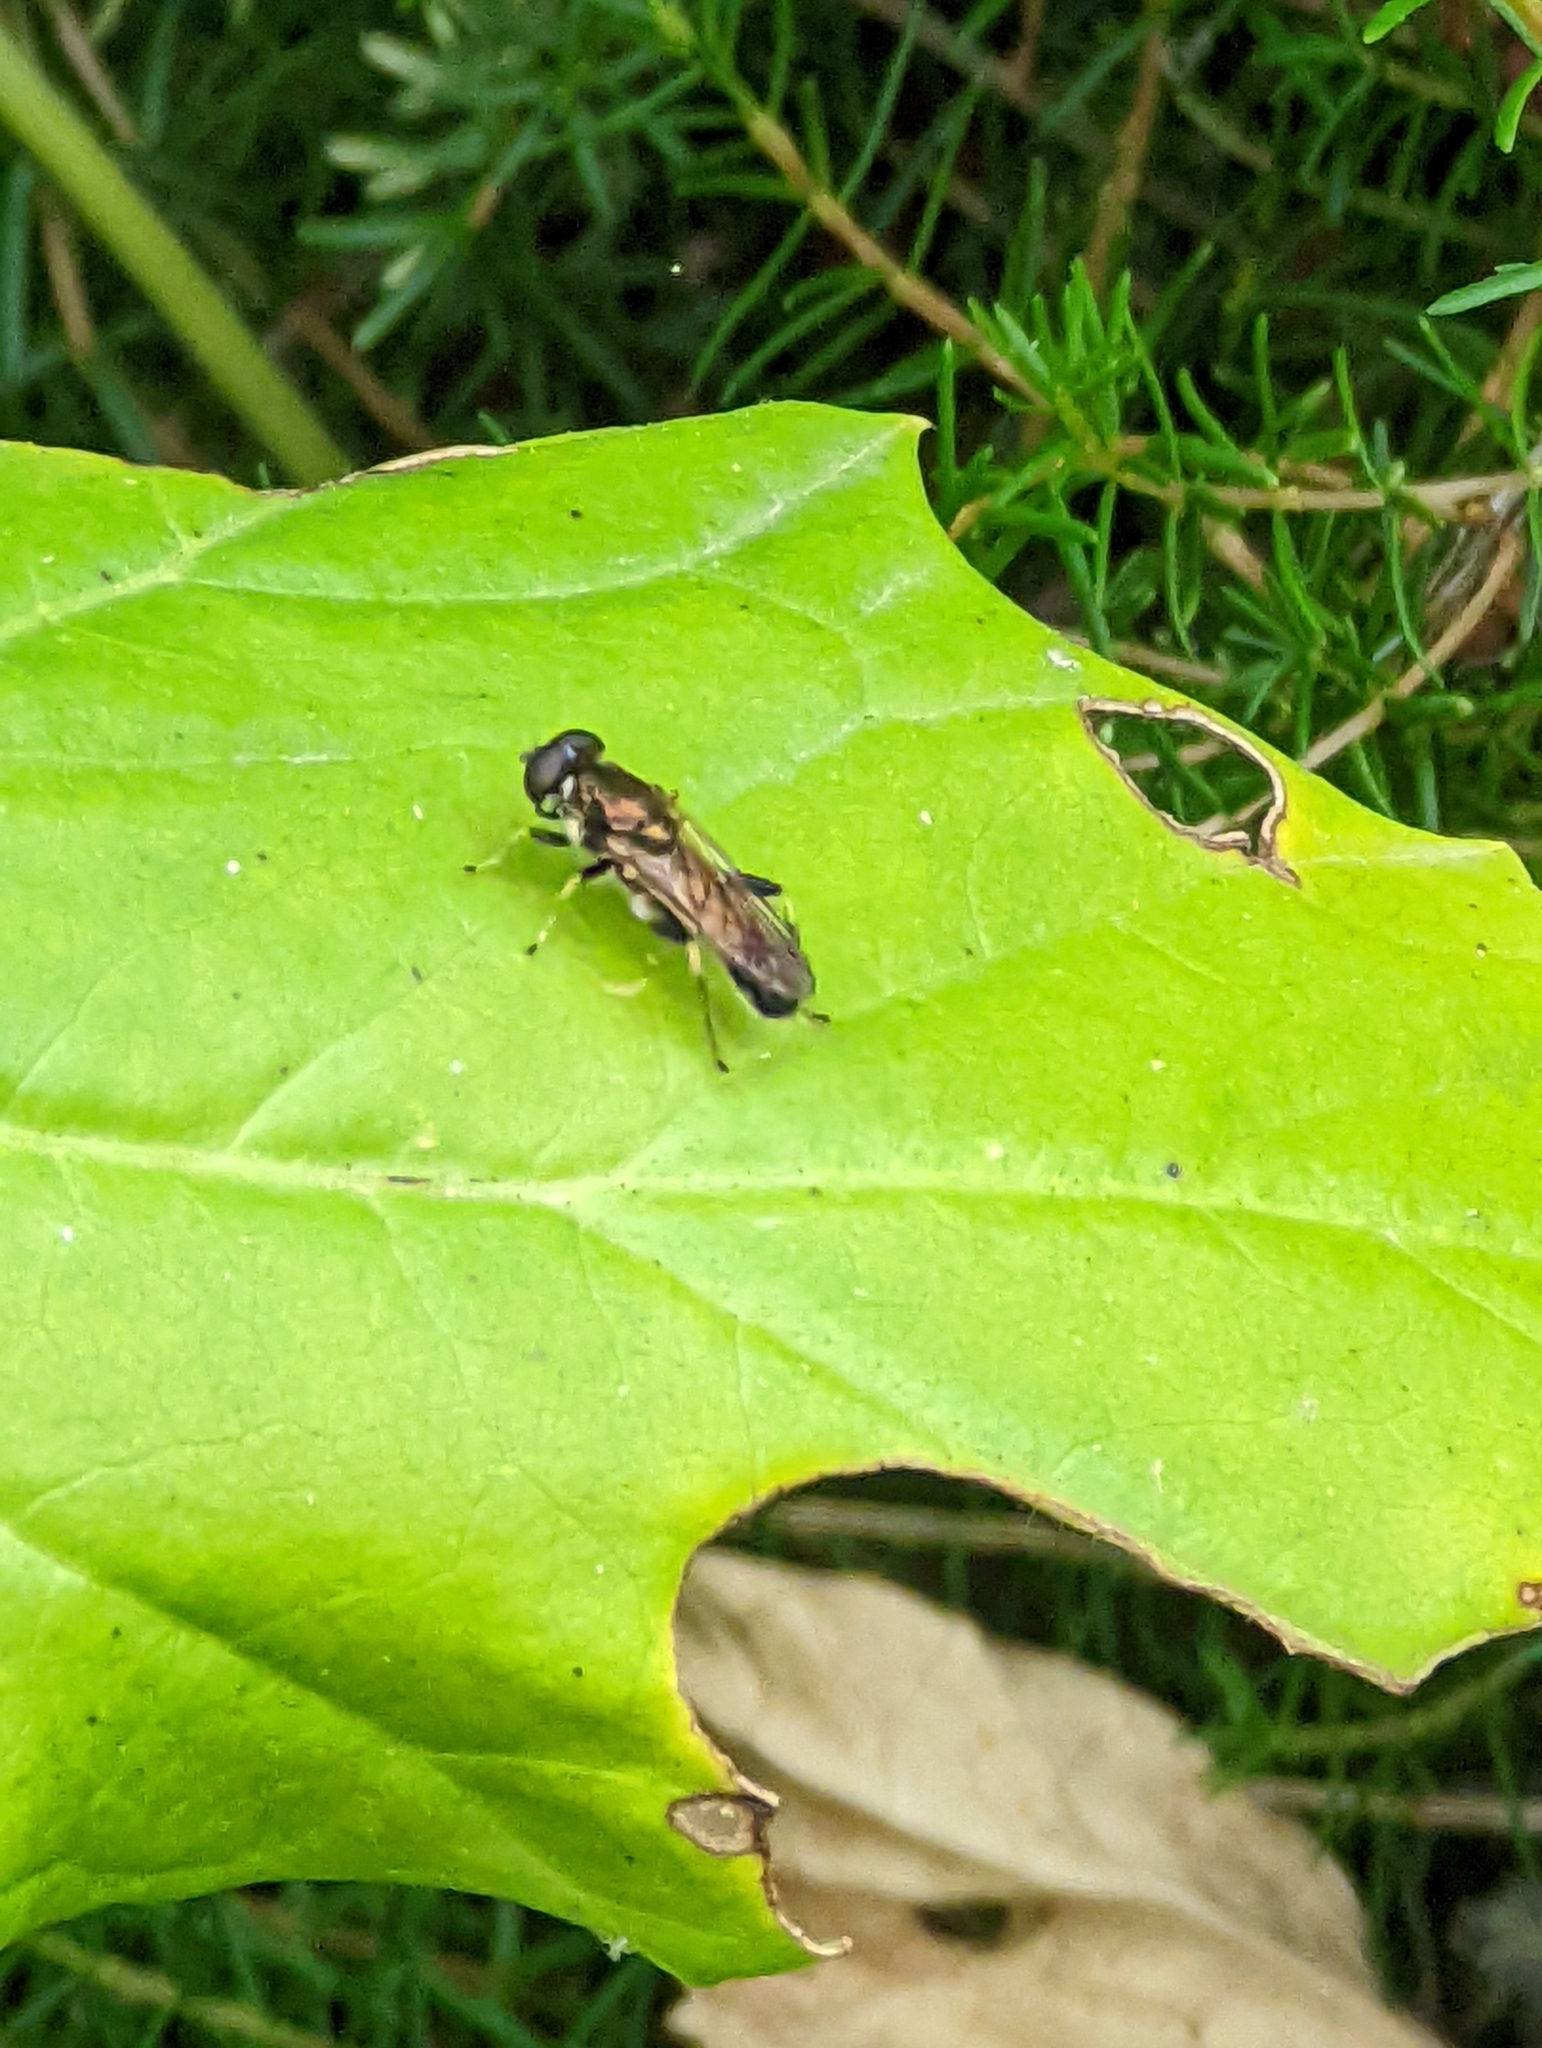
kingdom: Animalia
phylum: Arthropoda
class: Insecta
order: Diptera
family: Syrphidae
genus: Xylota
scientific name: Xylota segnis
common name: Brown-toed forest fly
